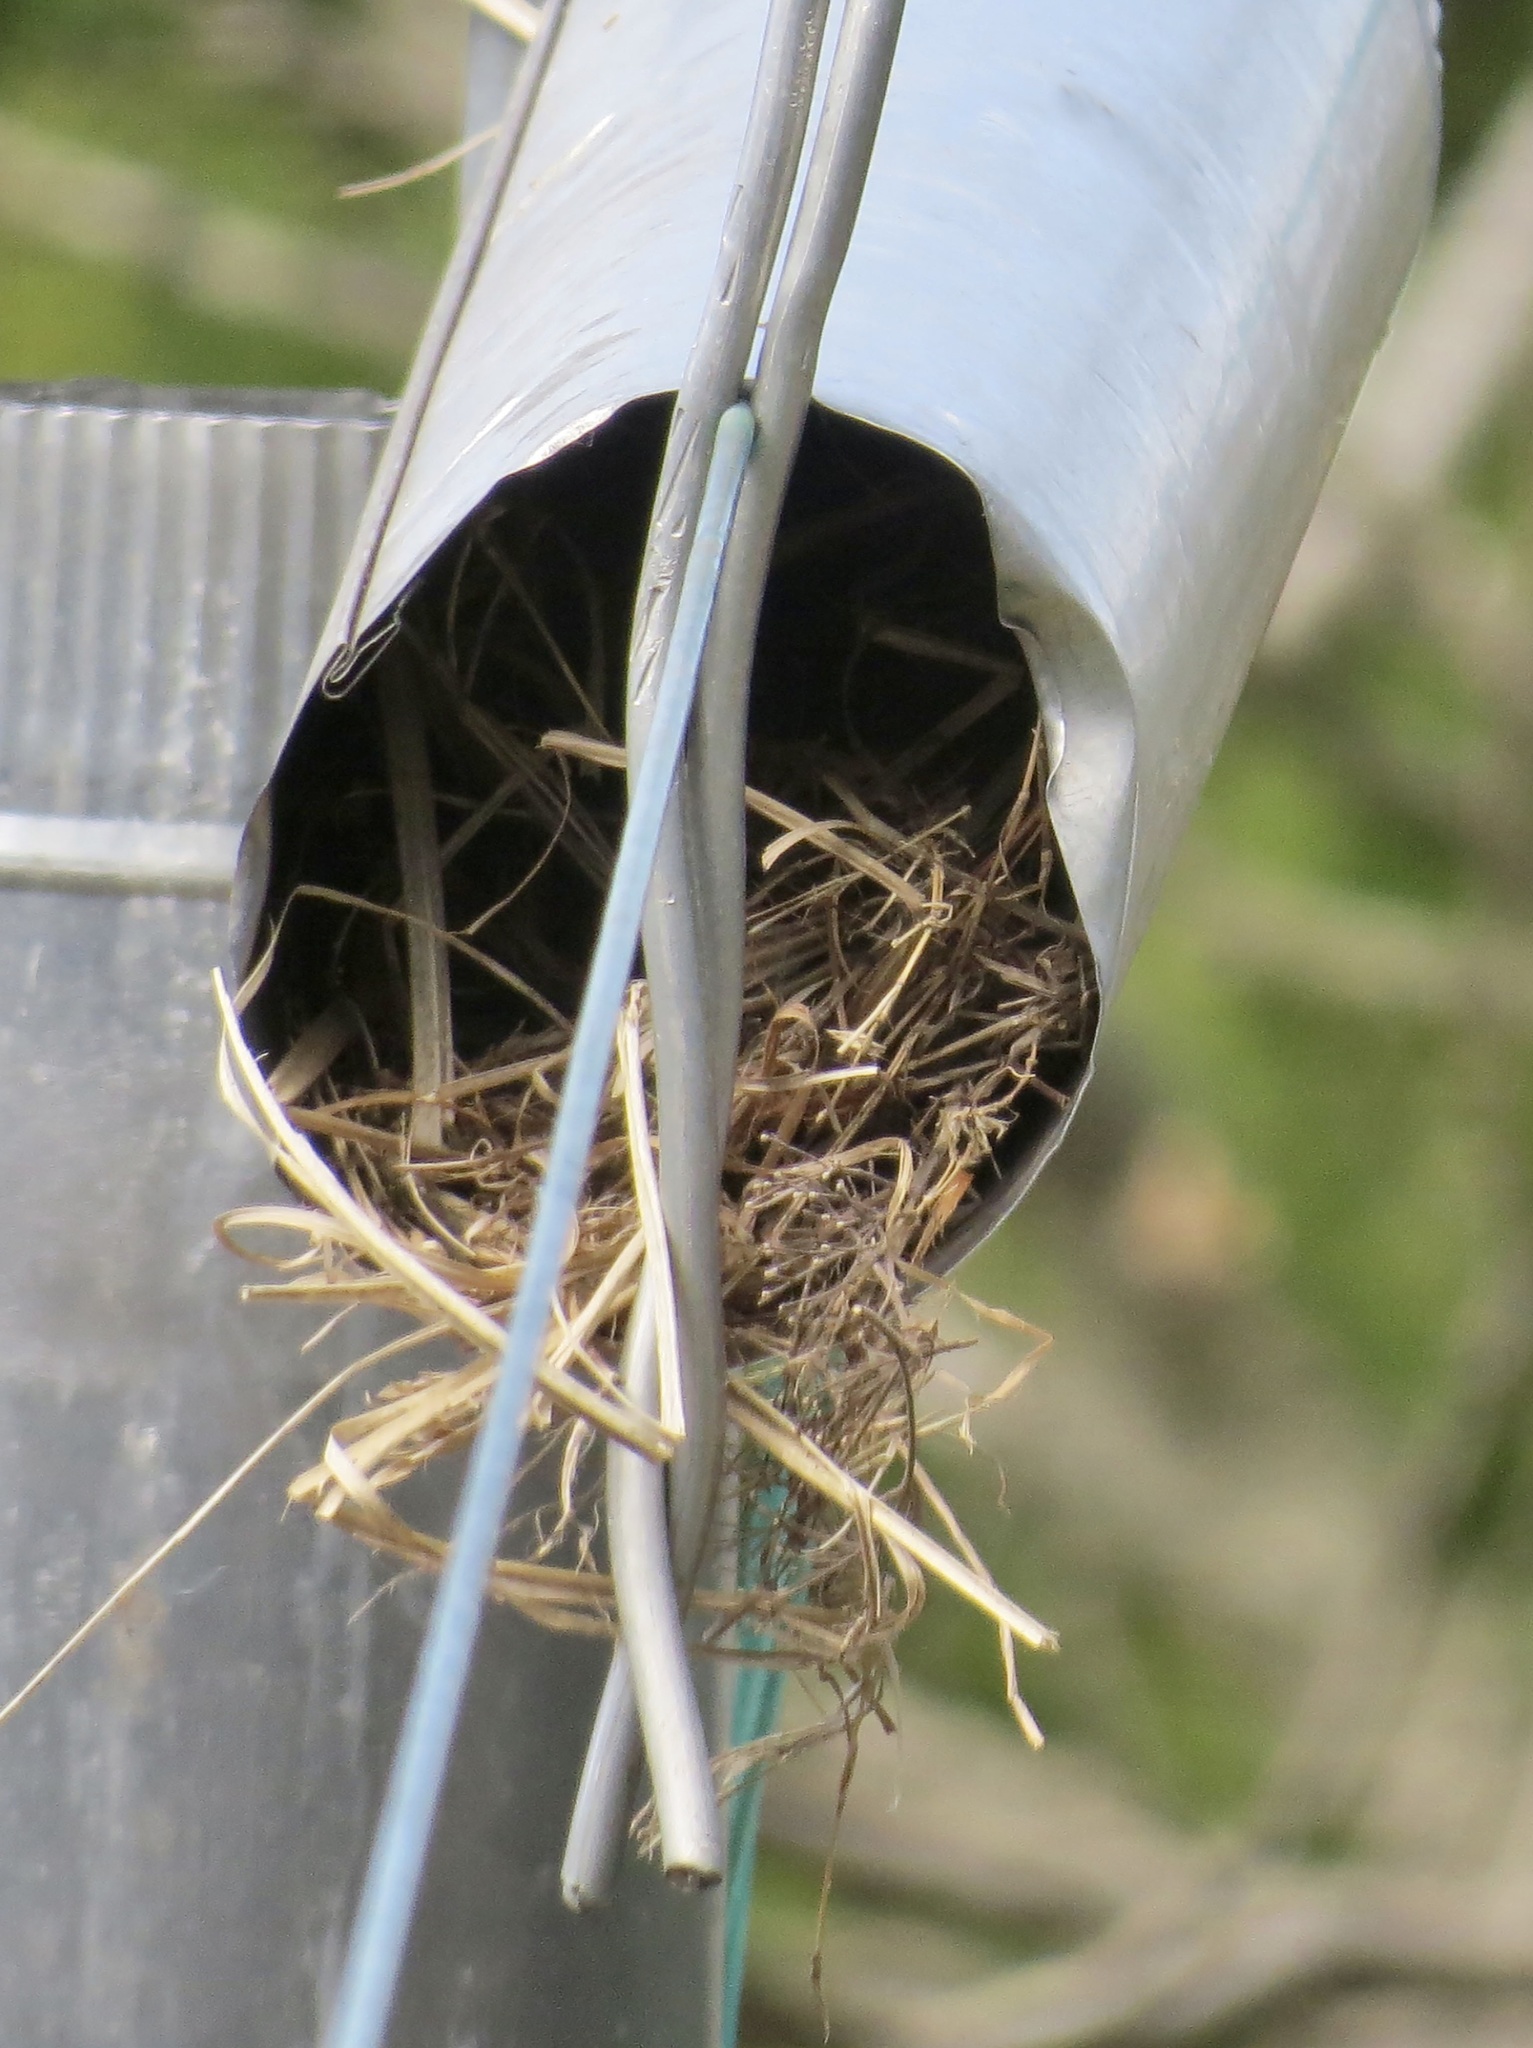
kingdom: Animalia
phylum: Chordata
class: Aves
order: Passeriformes
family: Passeridae
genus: Passer
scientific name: Passer domesticus
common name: House sparrow
